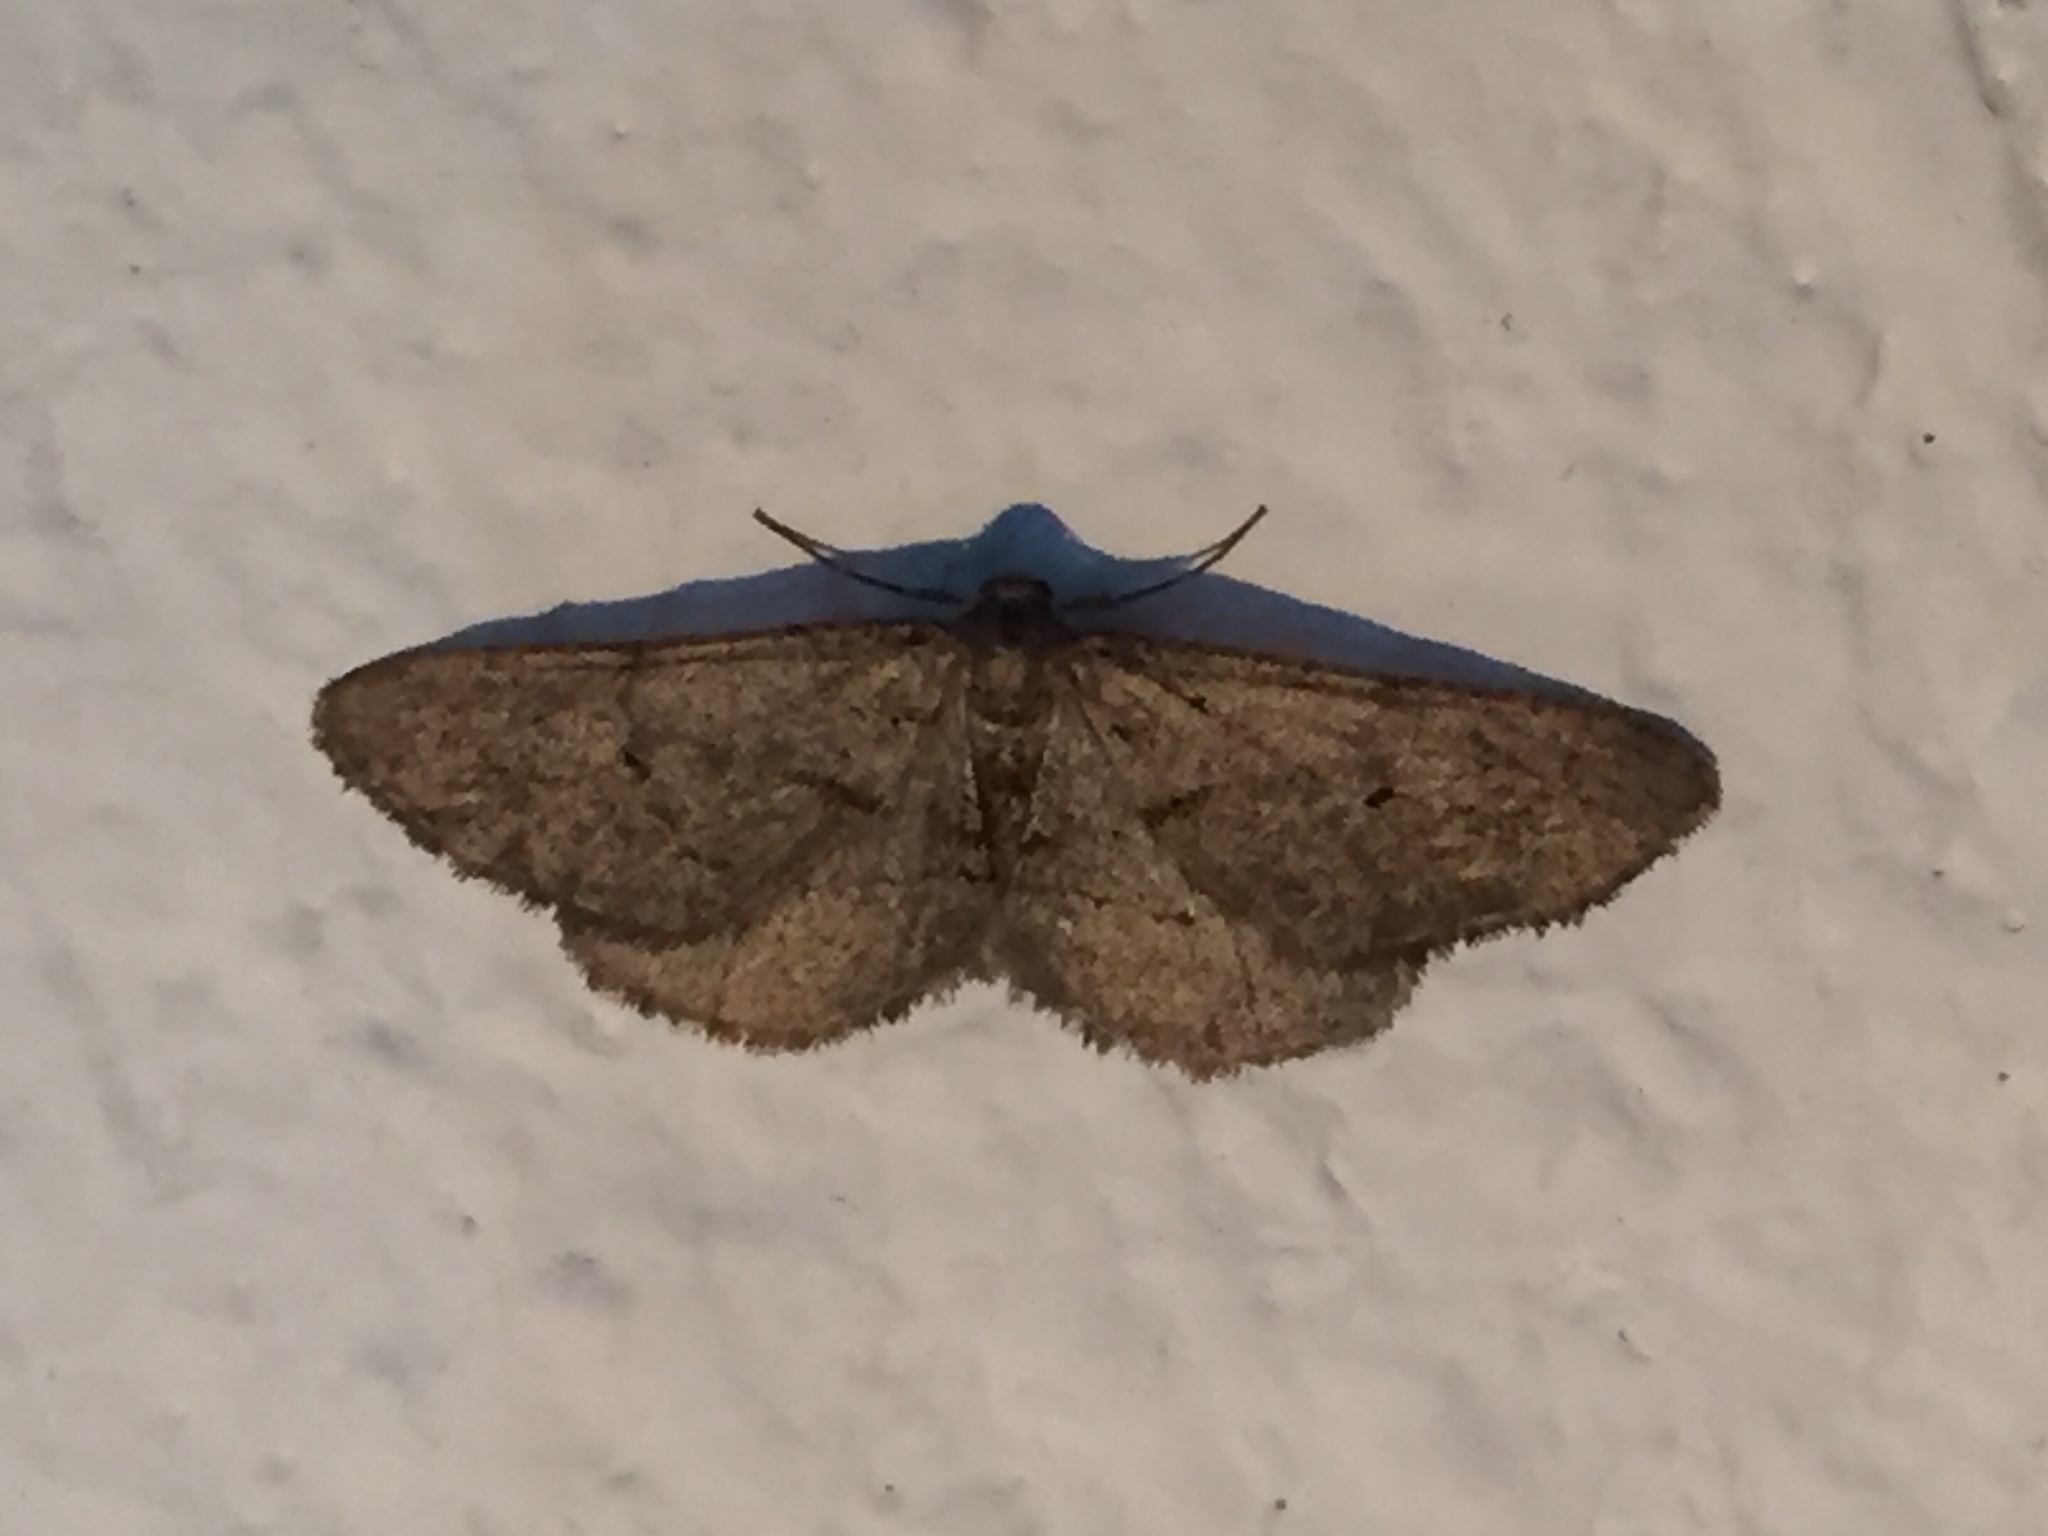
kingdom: Animalia
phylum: Arthropoda
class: Insecta
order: Lepidoptera
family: Geometridae
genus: Agriopis
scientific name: Agriopis bajaria
